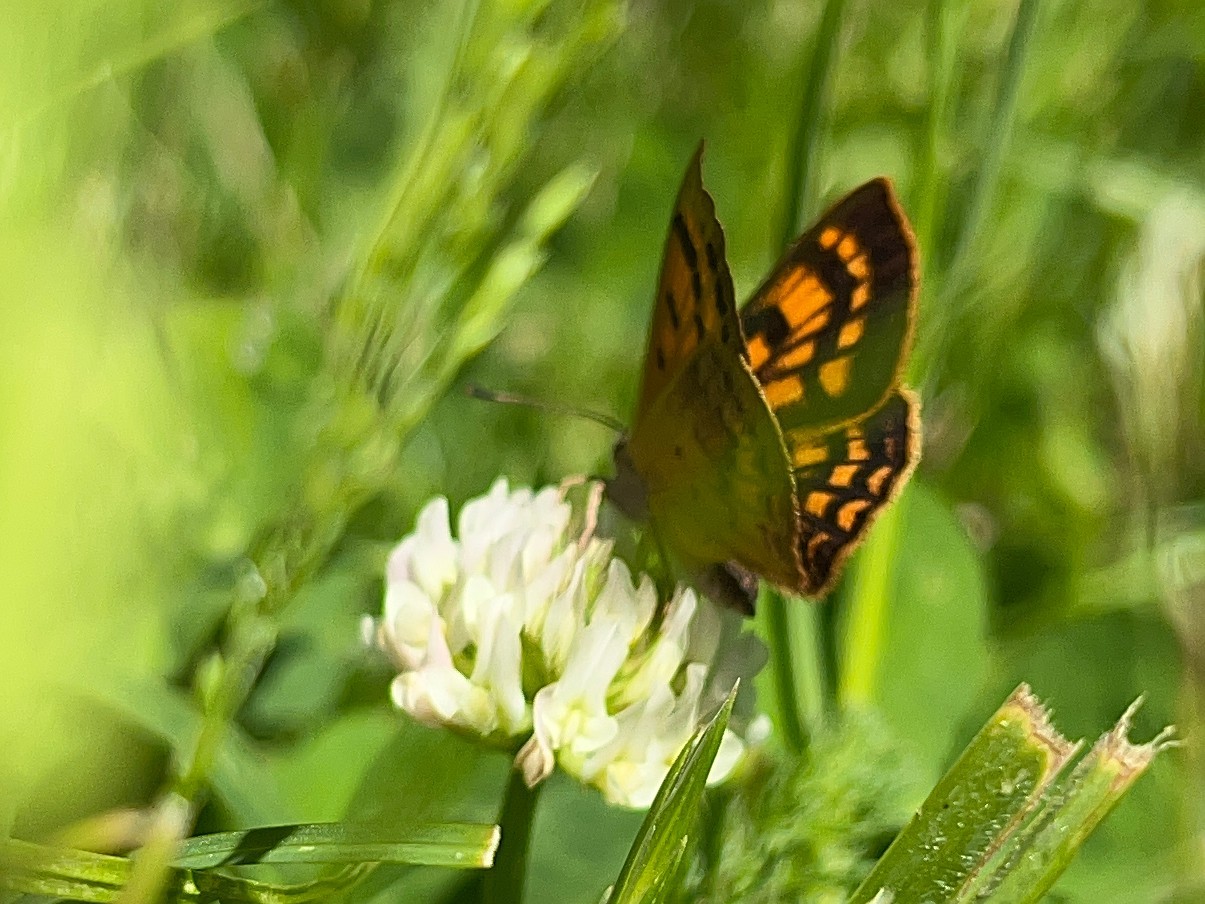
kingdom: Animalia
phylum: Arthropoda
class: Insecta
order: Lepidoptera
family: Lycaenidae
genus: Lycaena
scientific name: Lycaena feredayi
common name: Glade copper
